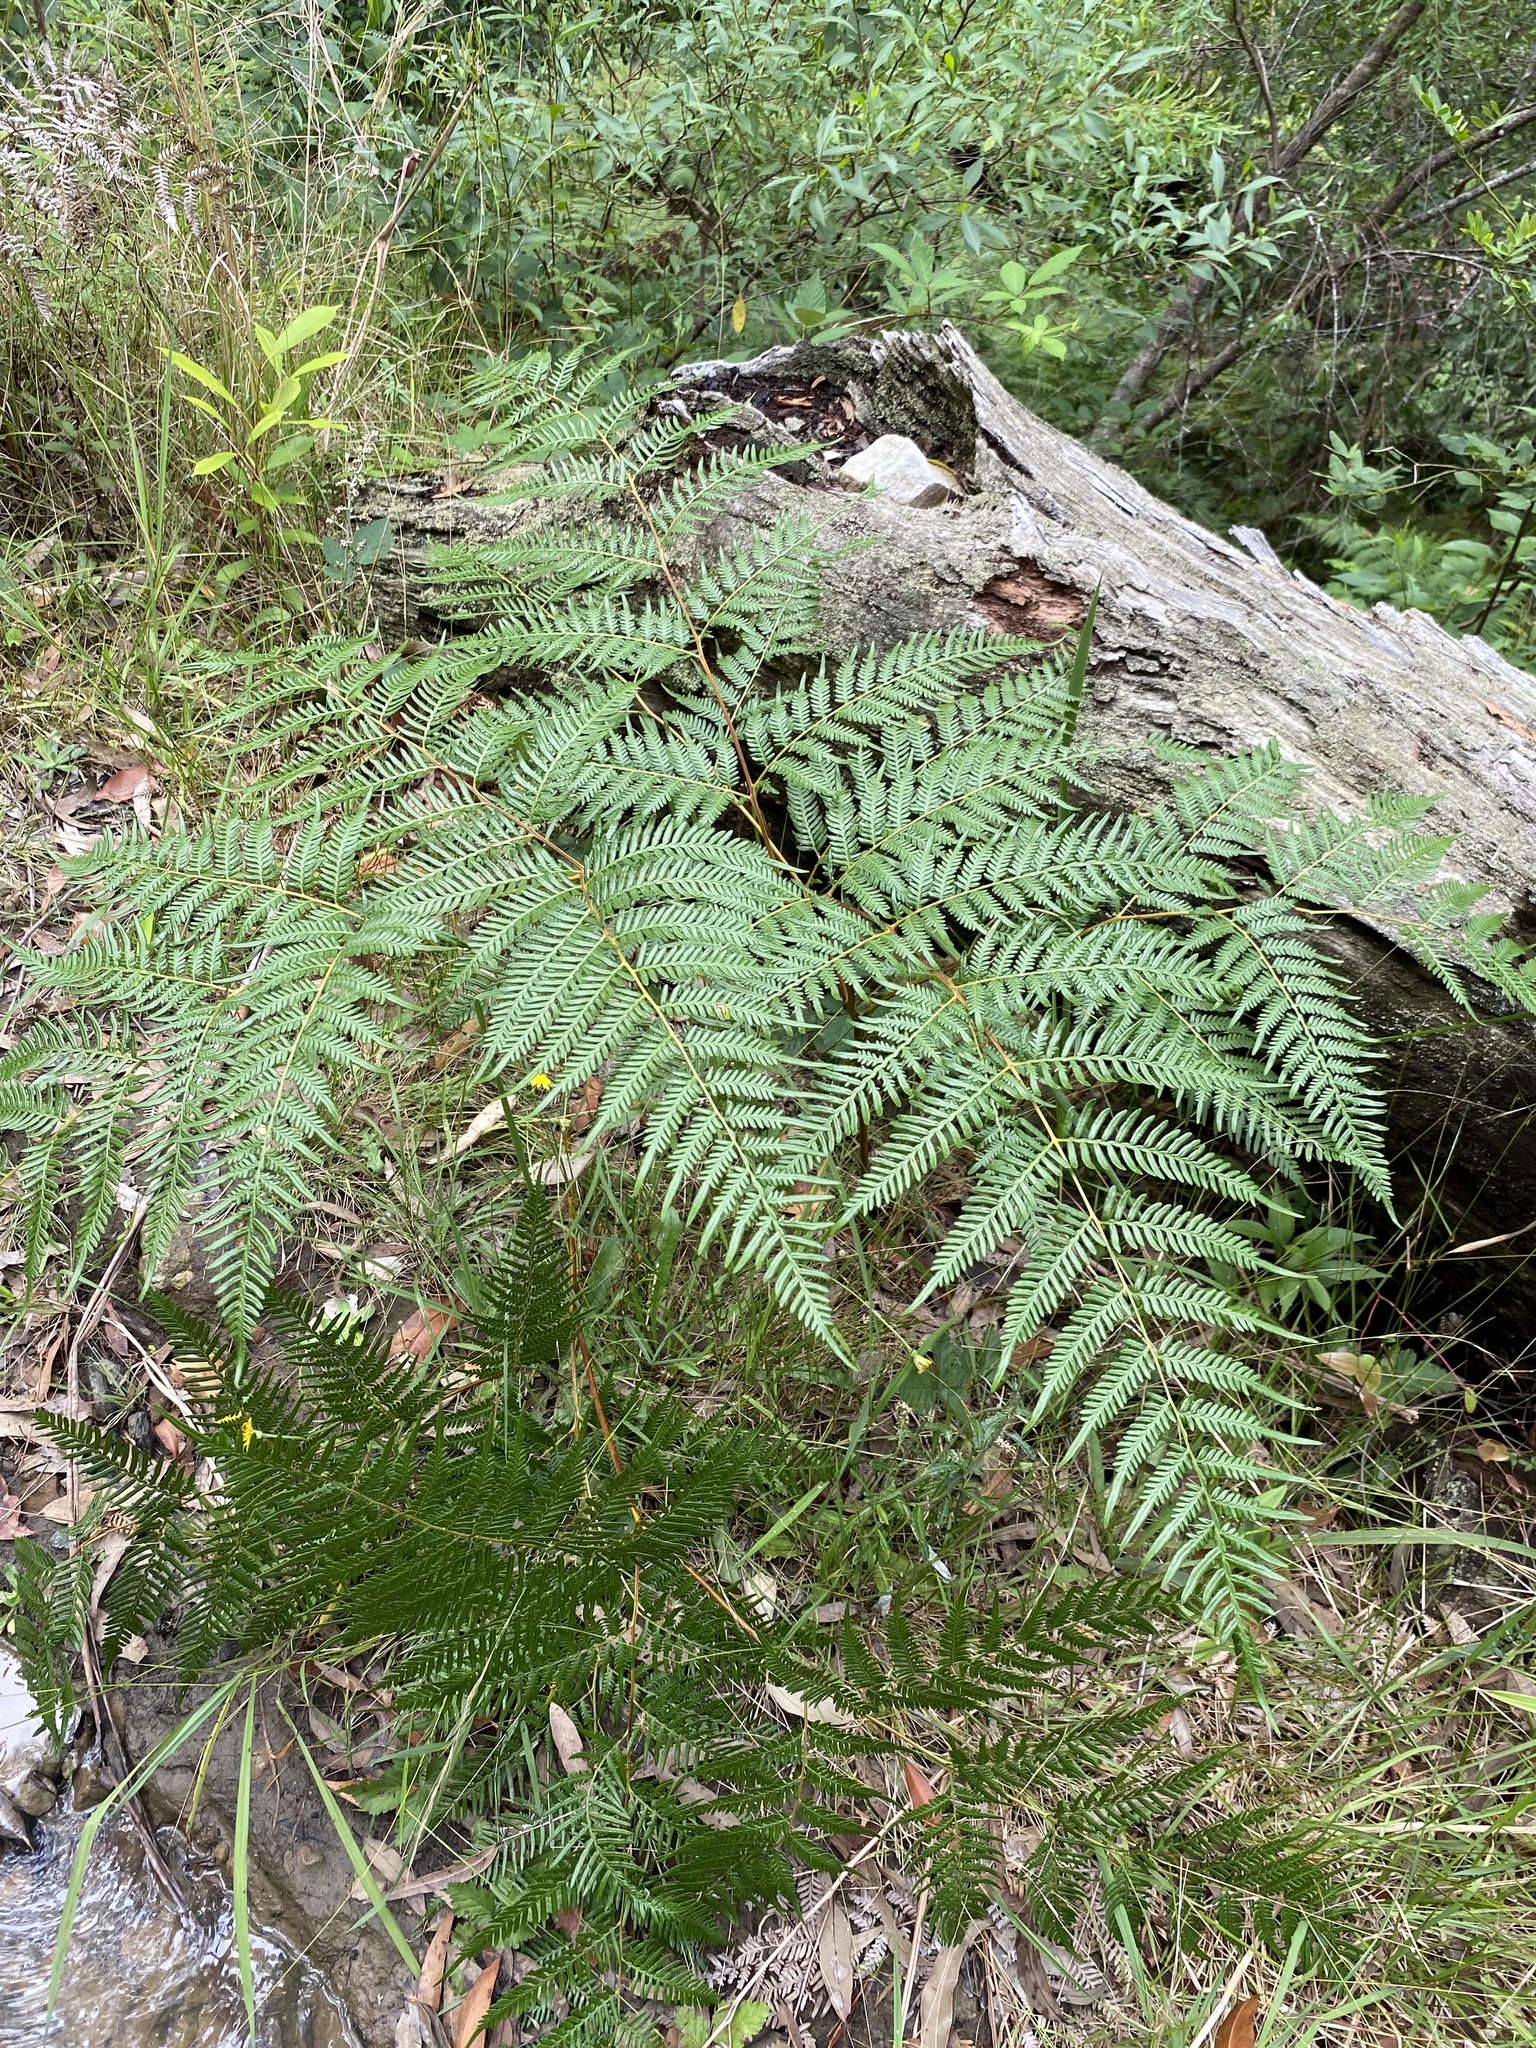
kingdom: Plantae
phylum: Tracheophyta
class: Polypodiopsida
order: Polypodiales
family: Dennstaedtiaceae
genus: Pteridium
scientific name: Pteridium esculentum
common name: Bracken fern
